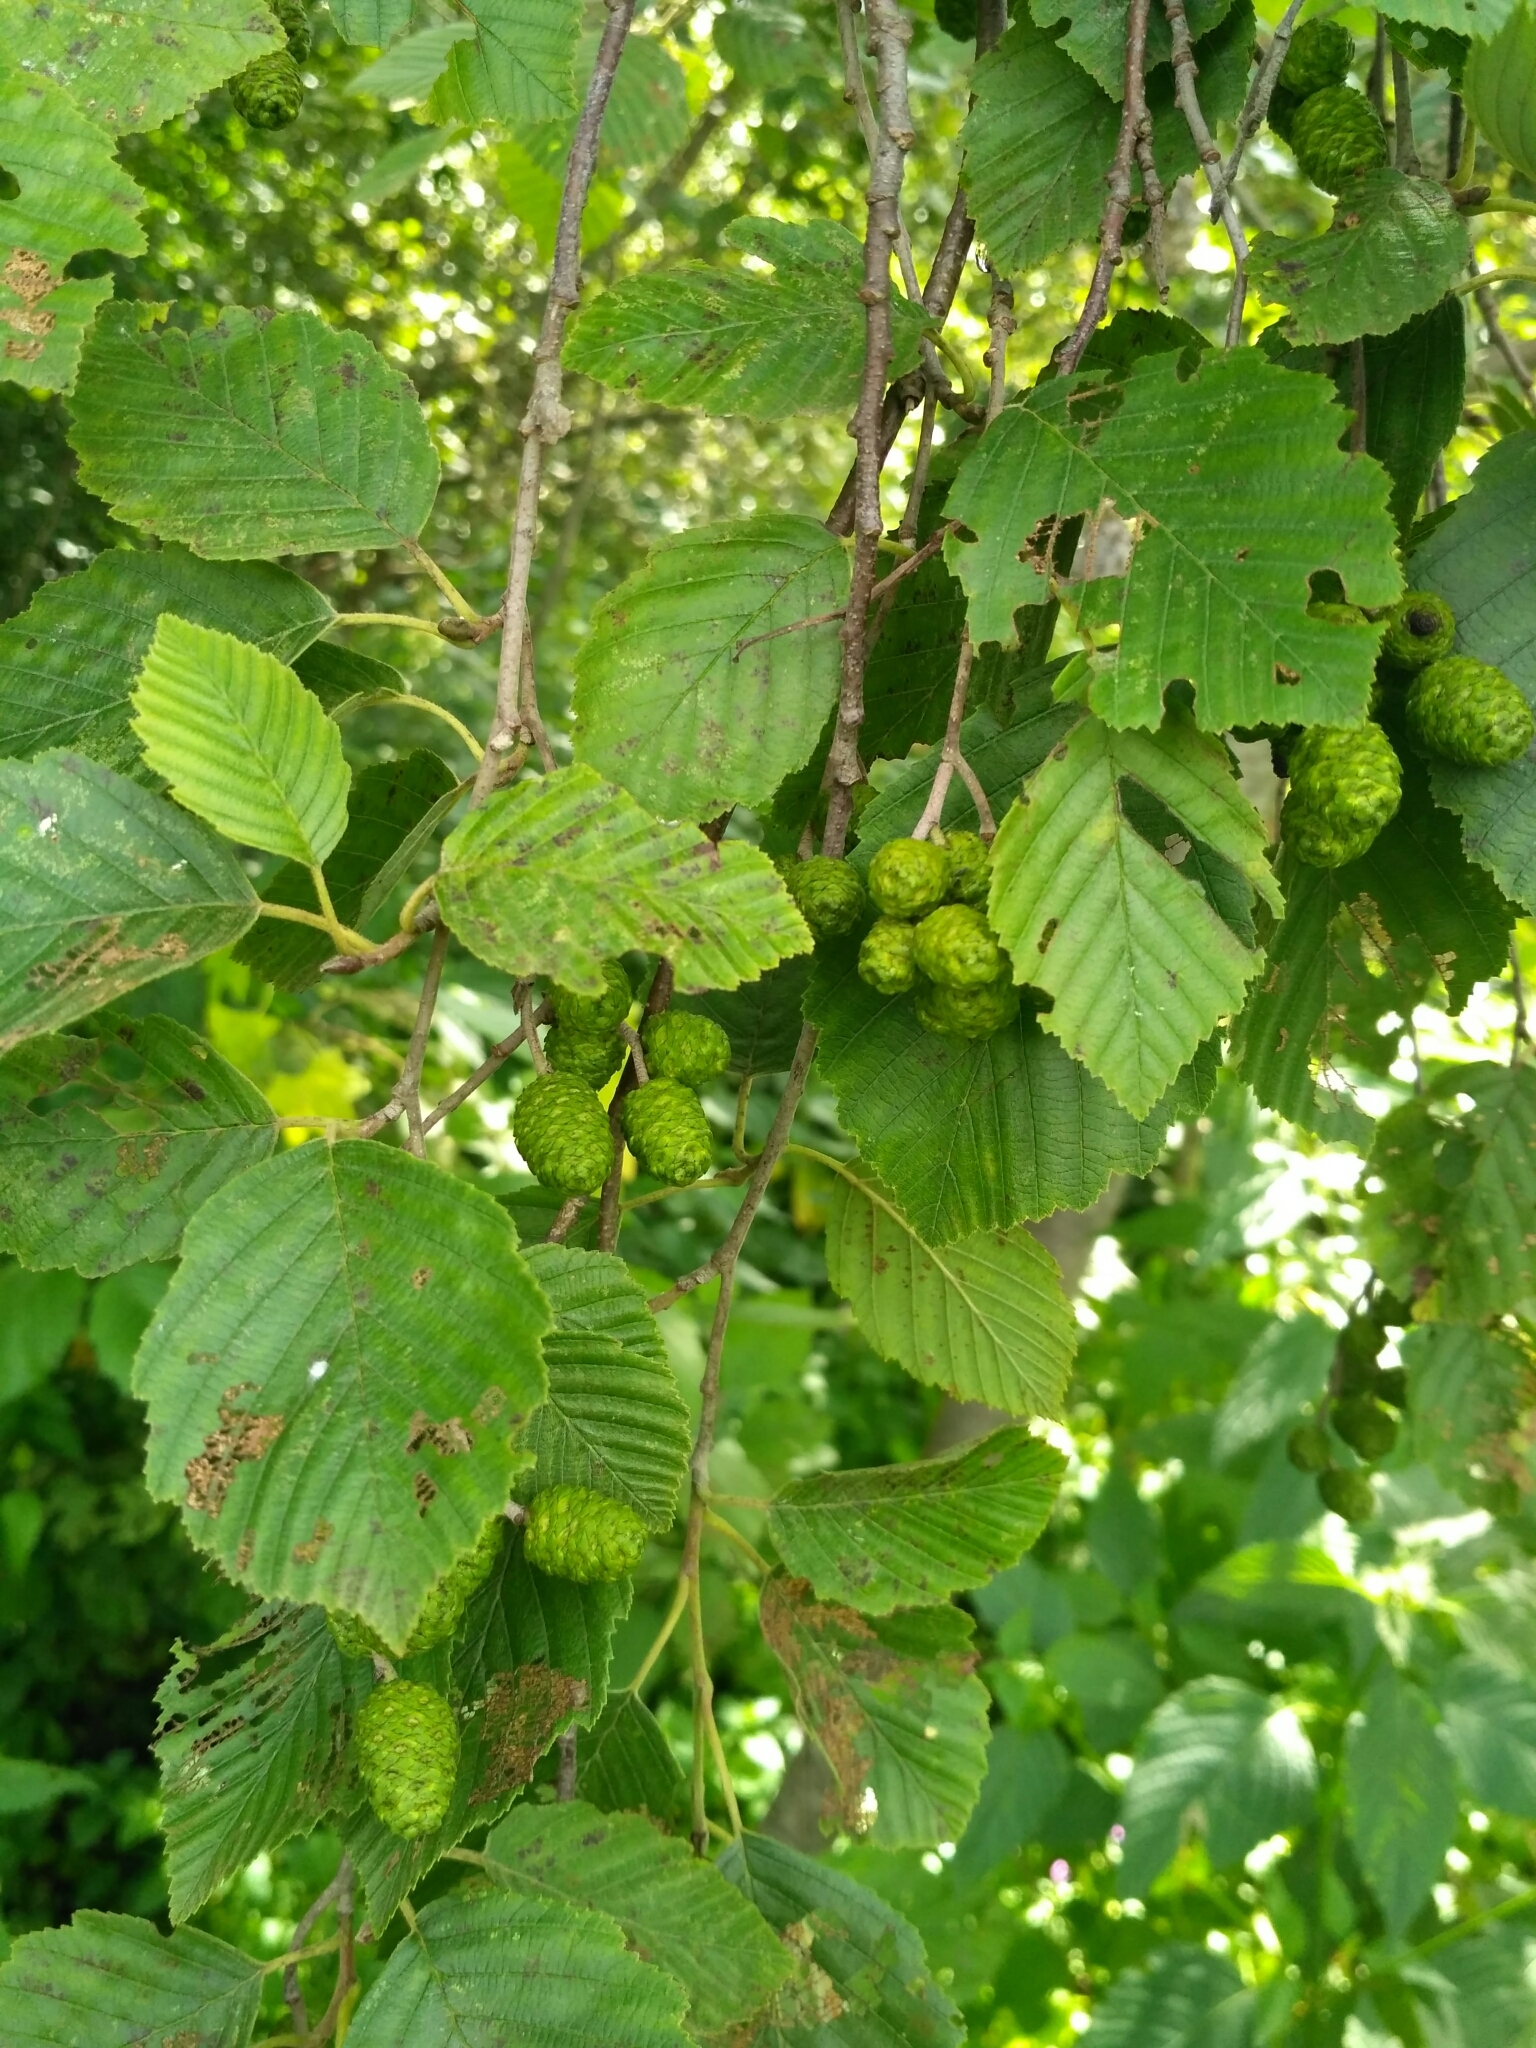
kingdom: Plantae
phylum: Tracheophyta
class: Magnoliopsida
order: Fagales
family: Betulaceae
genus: Alnus
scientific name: Alnus incana
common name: Grey alder
